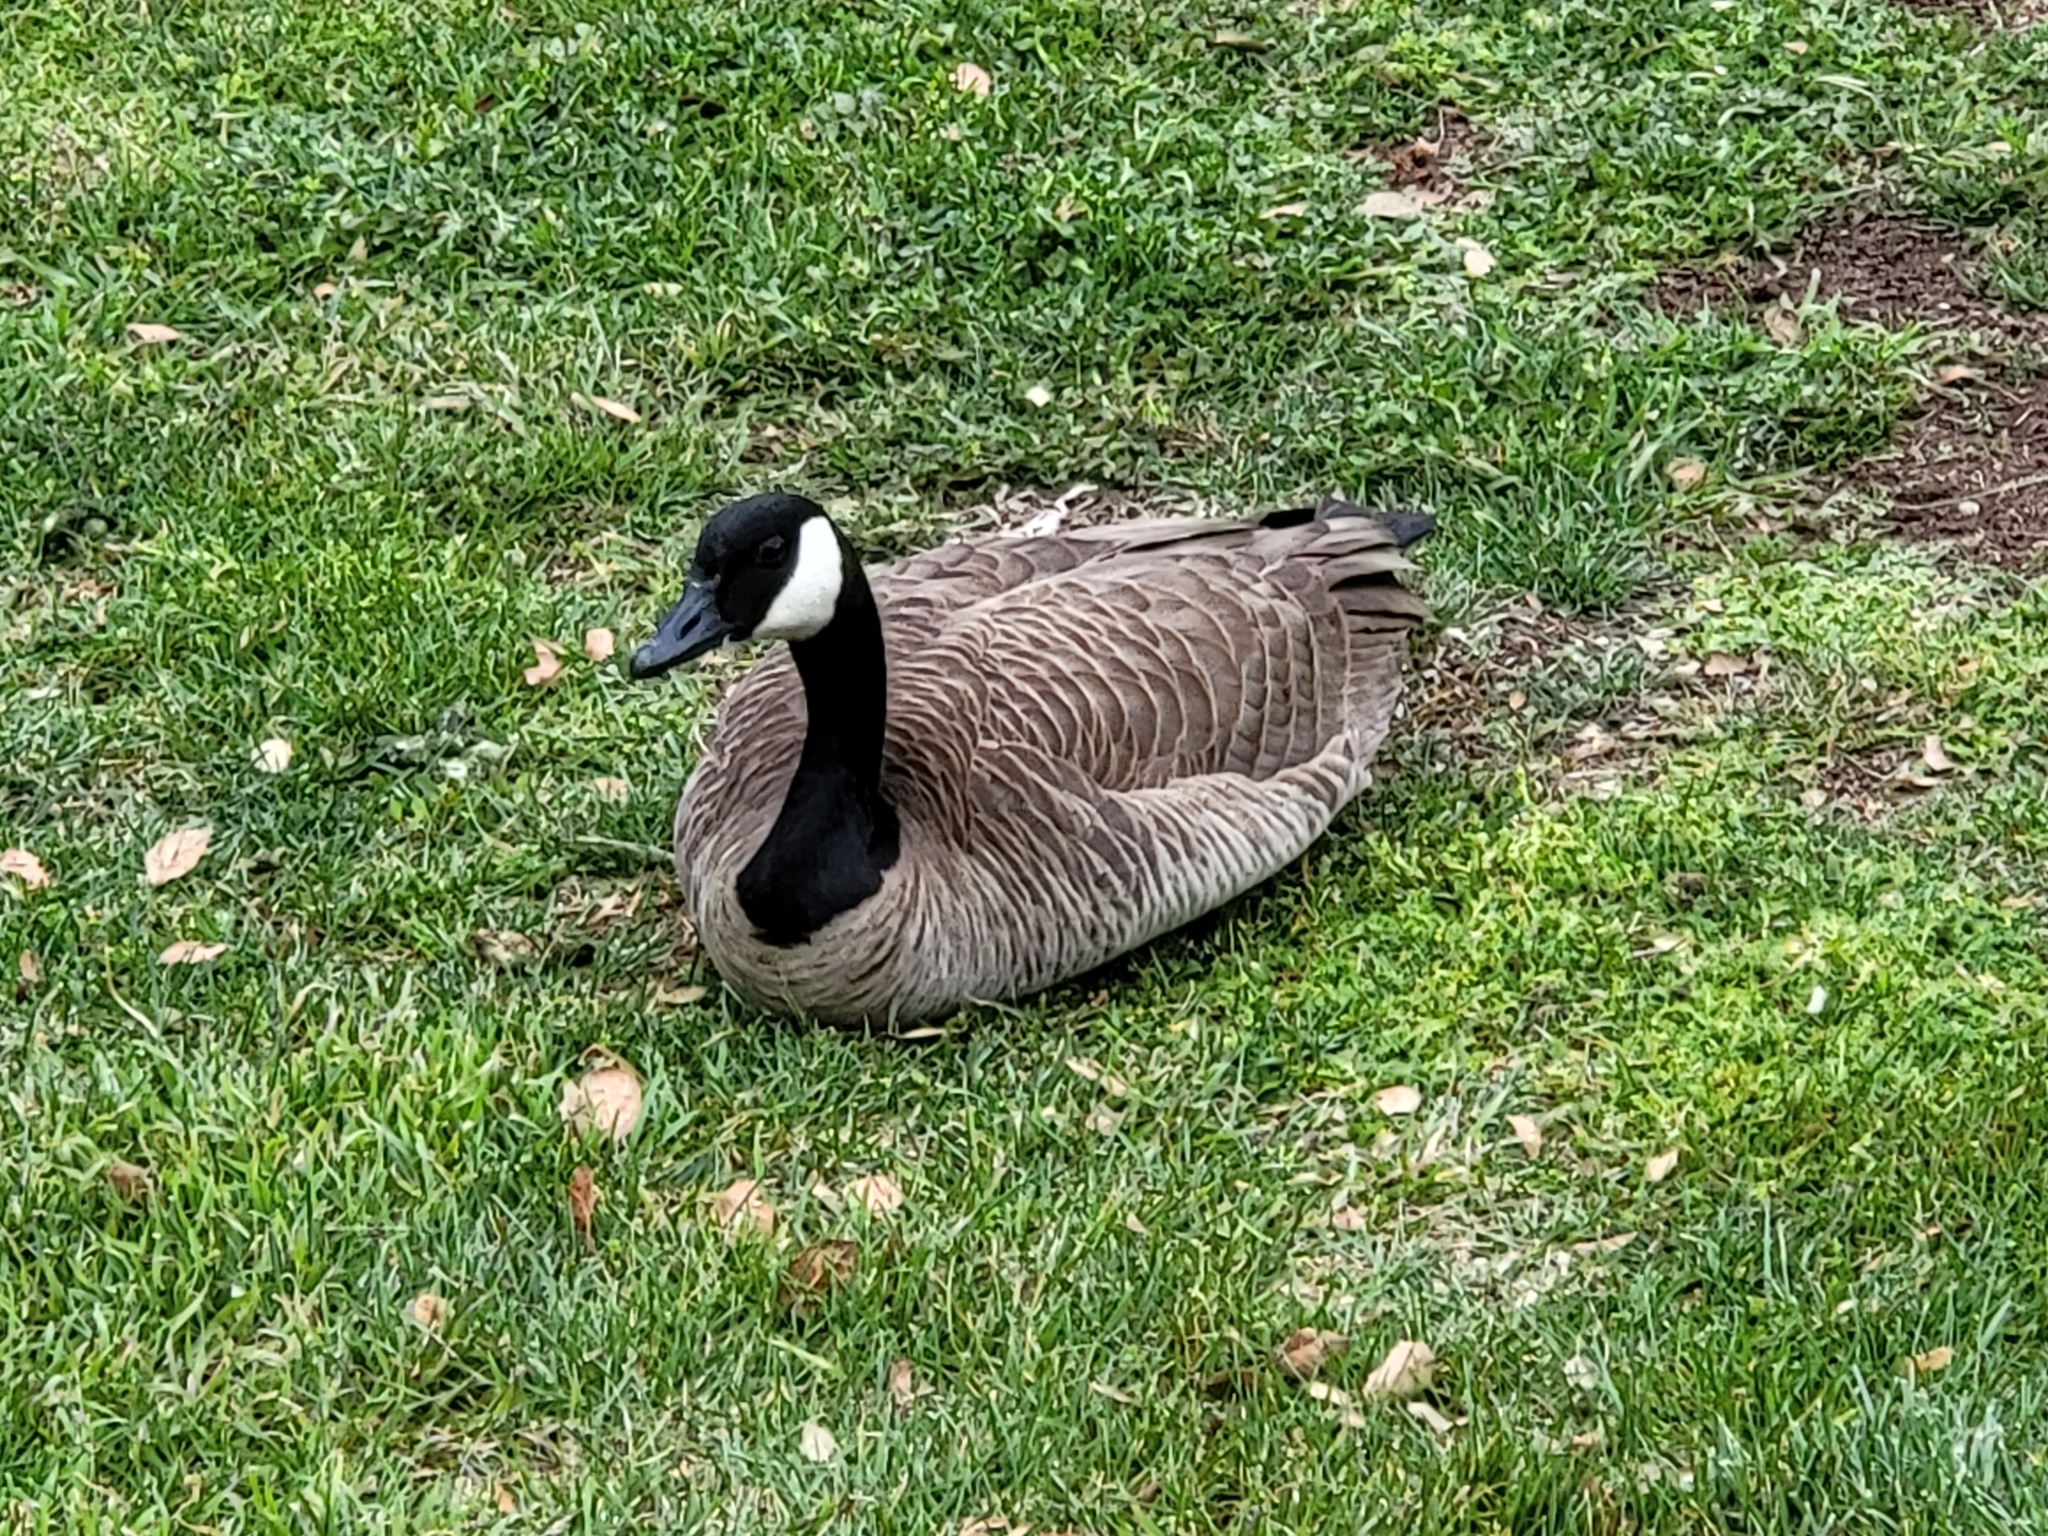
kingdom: Animalia
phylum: Chordata
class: Aves
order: Anseriformes
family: Anatidae
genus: Branta
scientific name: Branta canadensis
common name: Canada goose
